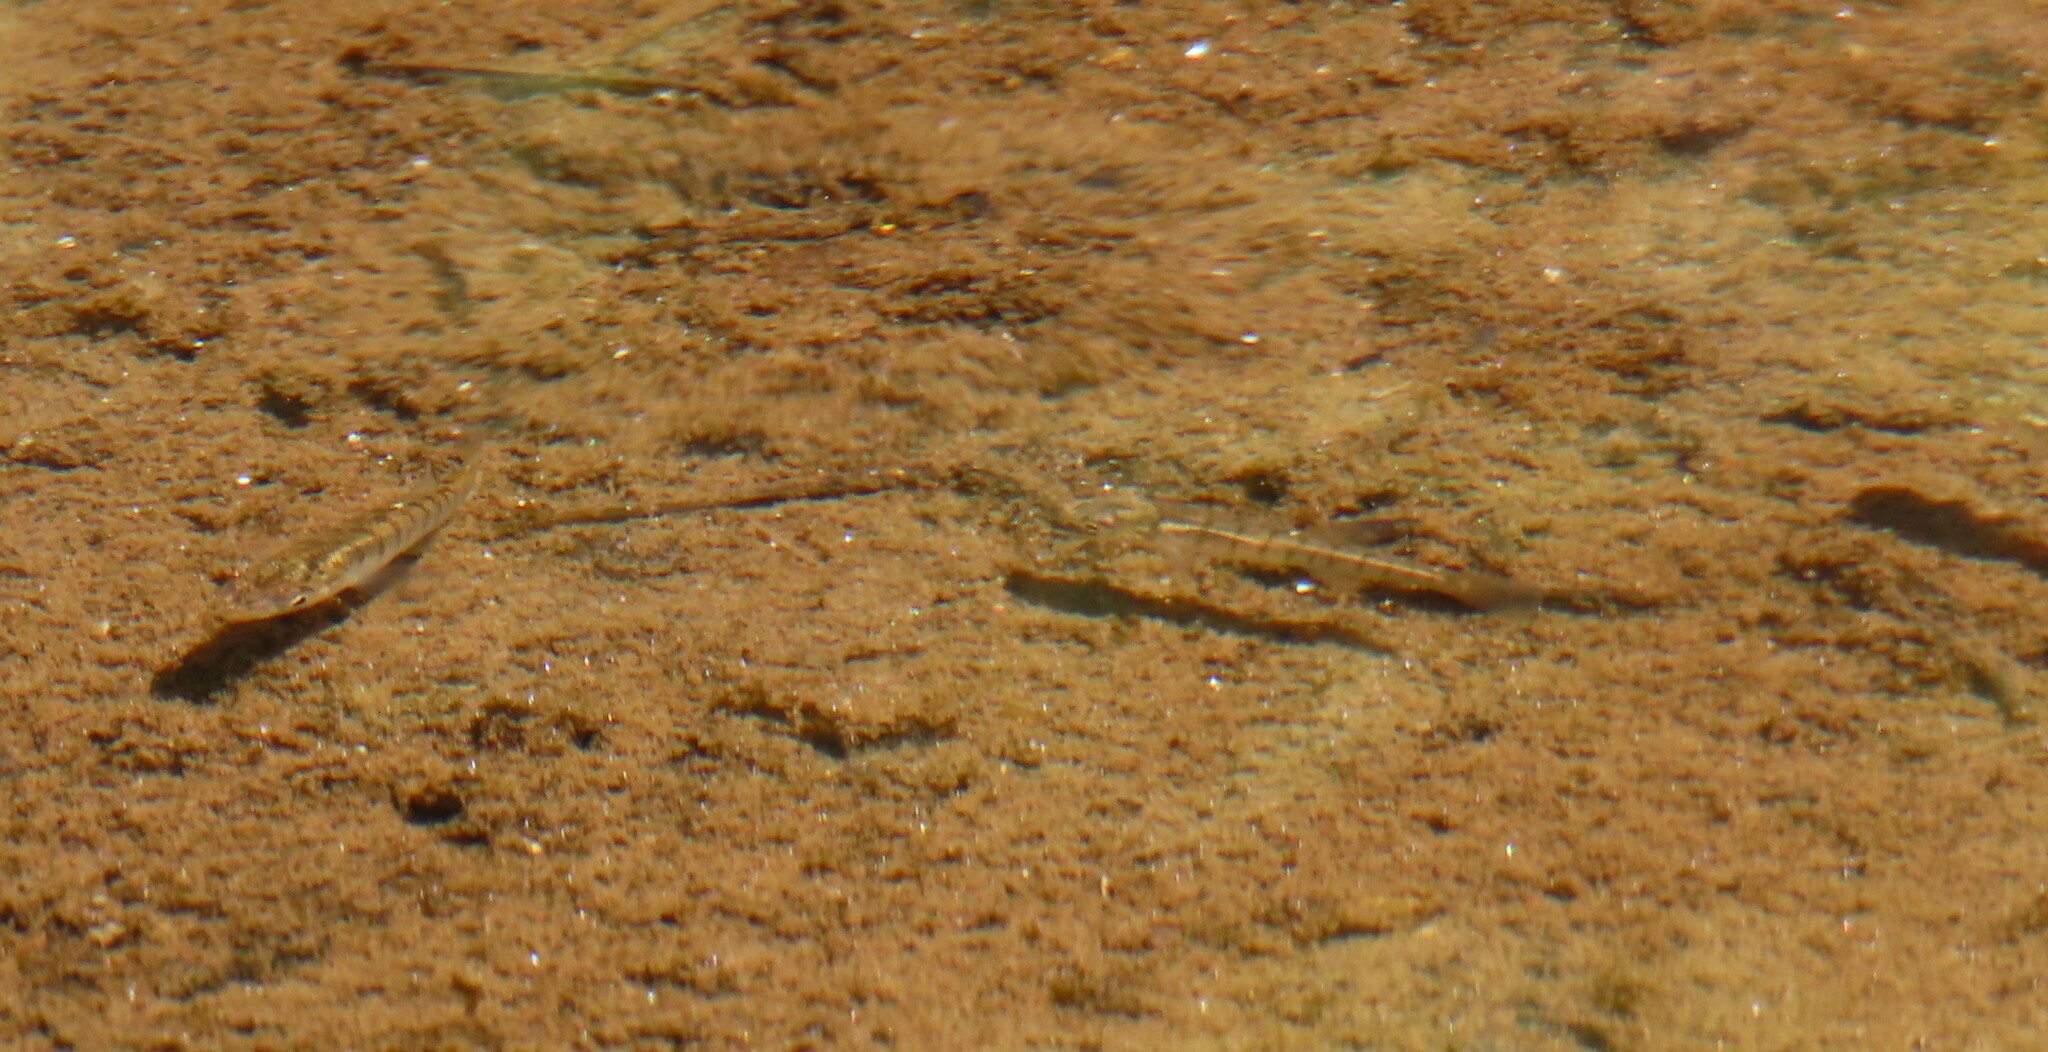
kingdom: Animalia
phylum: Chordata
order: Cyprinodontiformes
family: Fundulidae
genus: Fundulus
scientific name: Fundulus diaphanus
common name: Banded killifish
